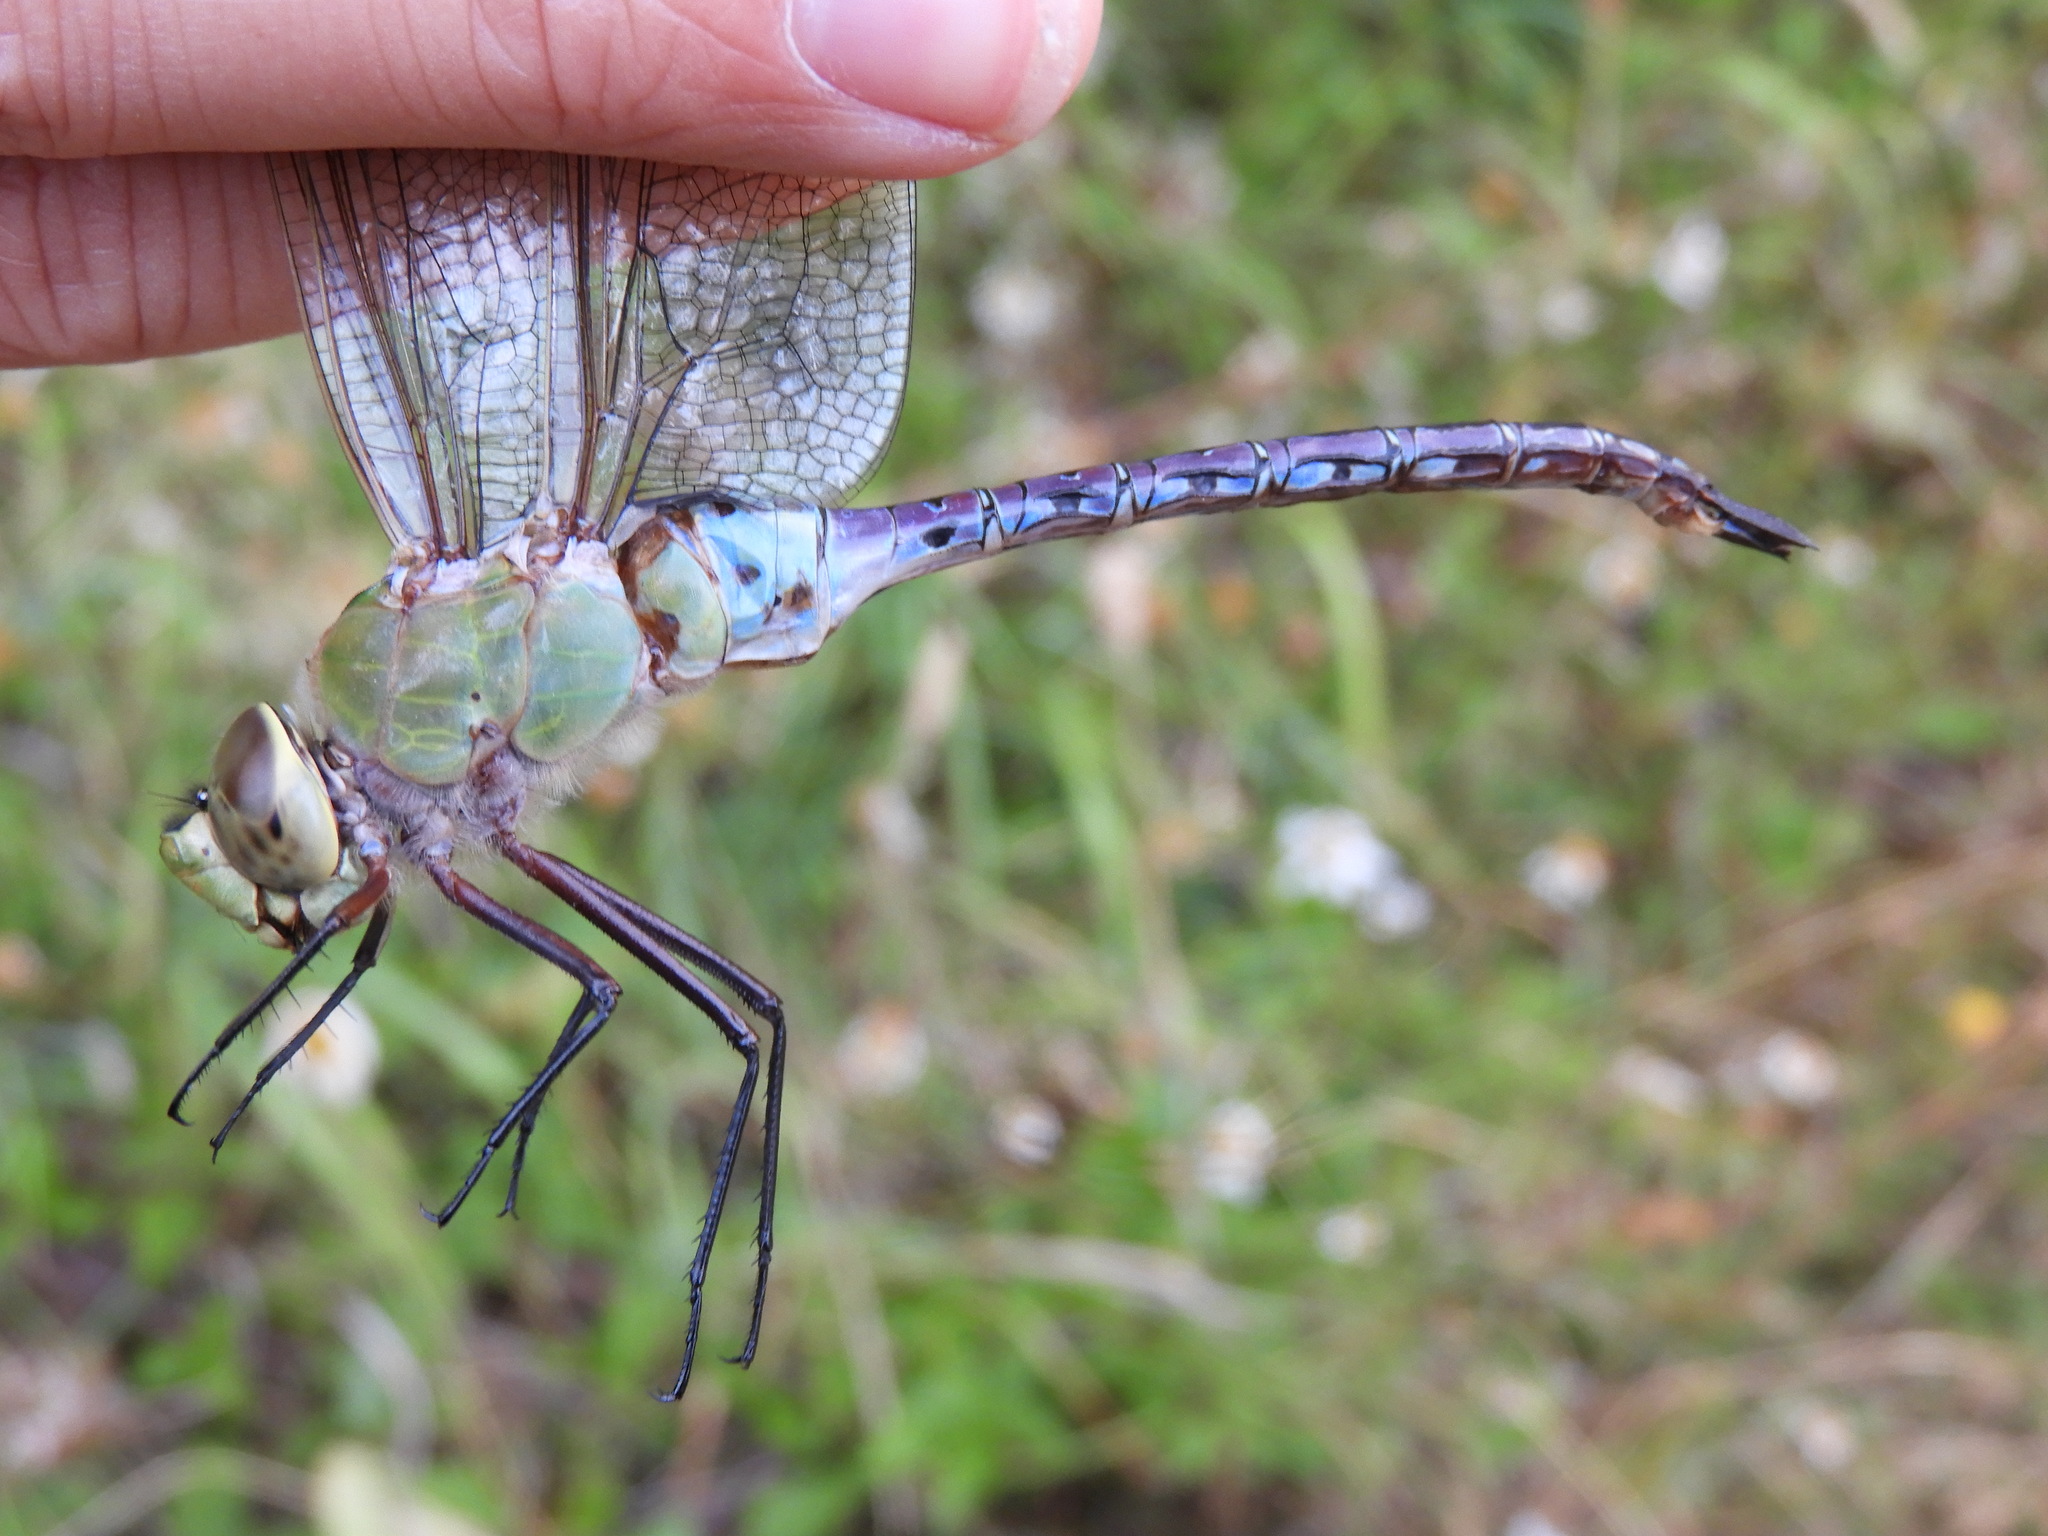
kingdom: Animalia
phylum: Arthropoda
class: Insecta
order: Odonata
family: Aeshnidae
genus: Anax
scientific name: Anax junius
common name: Common green darner
